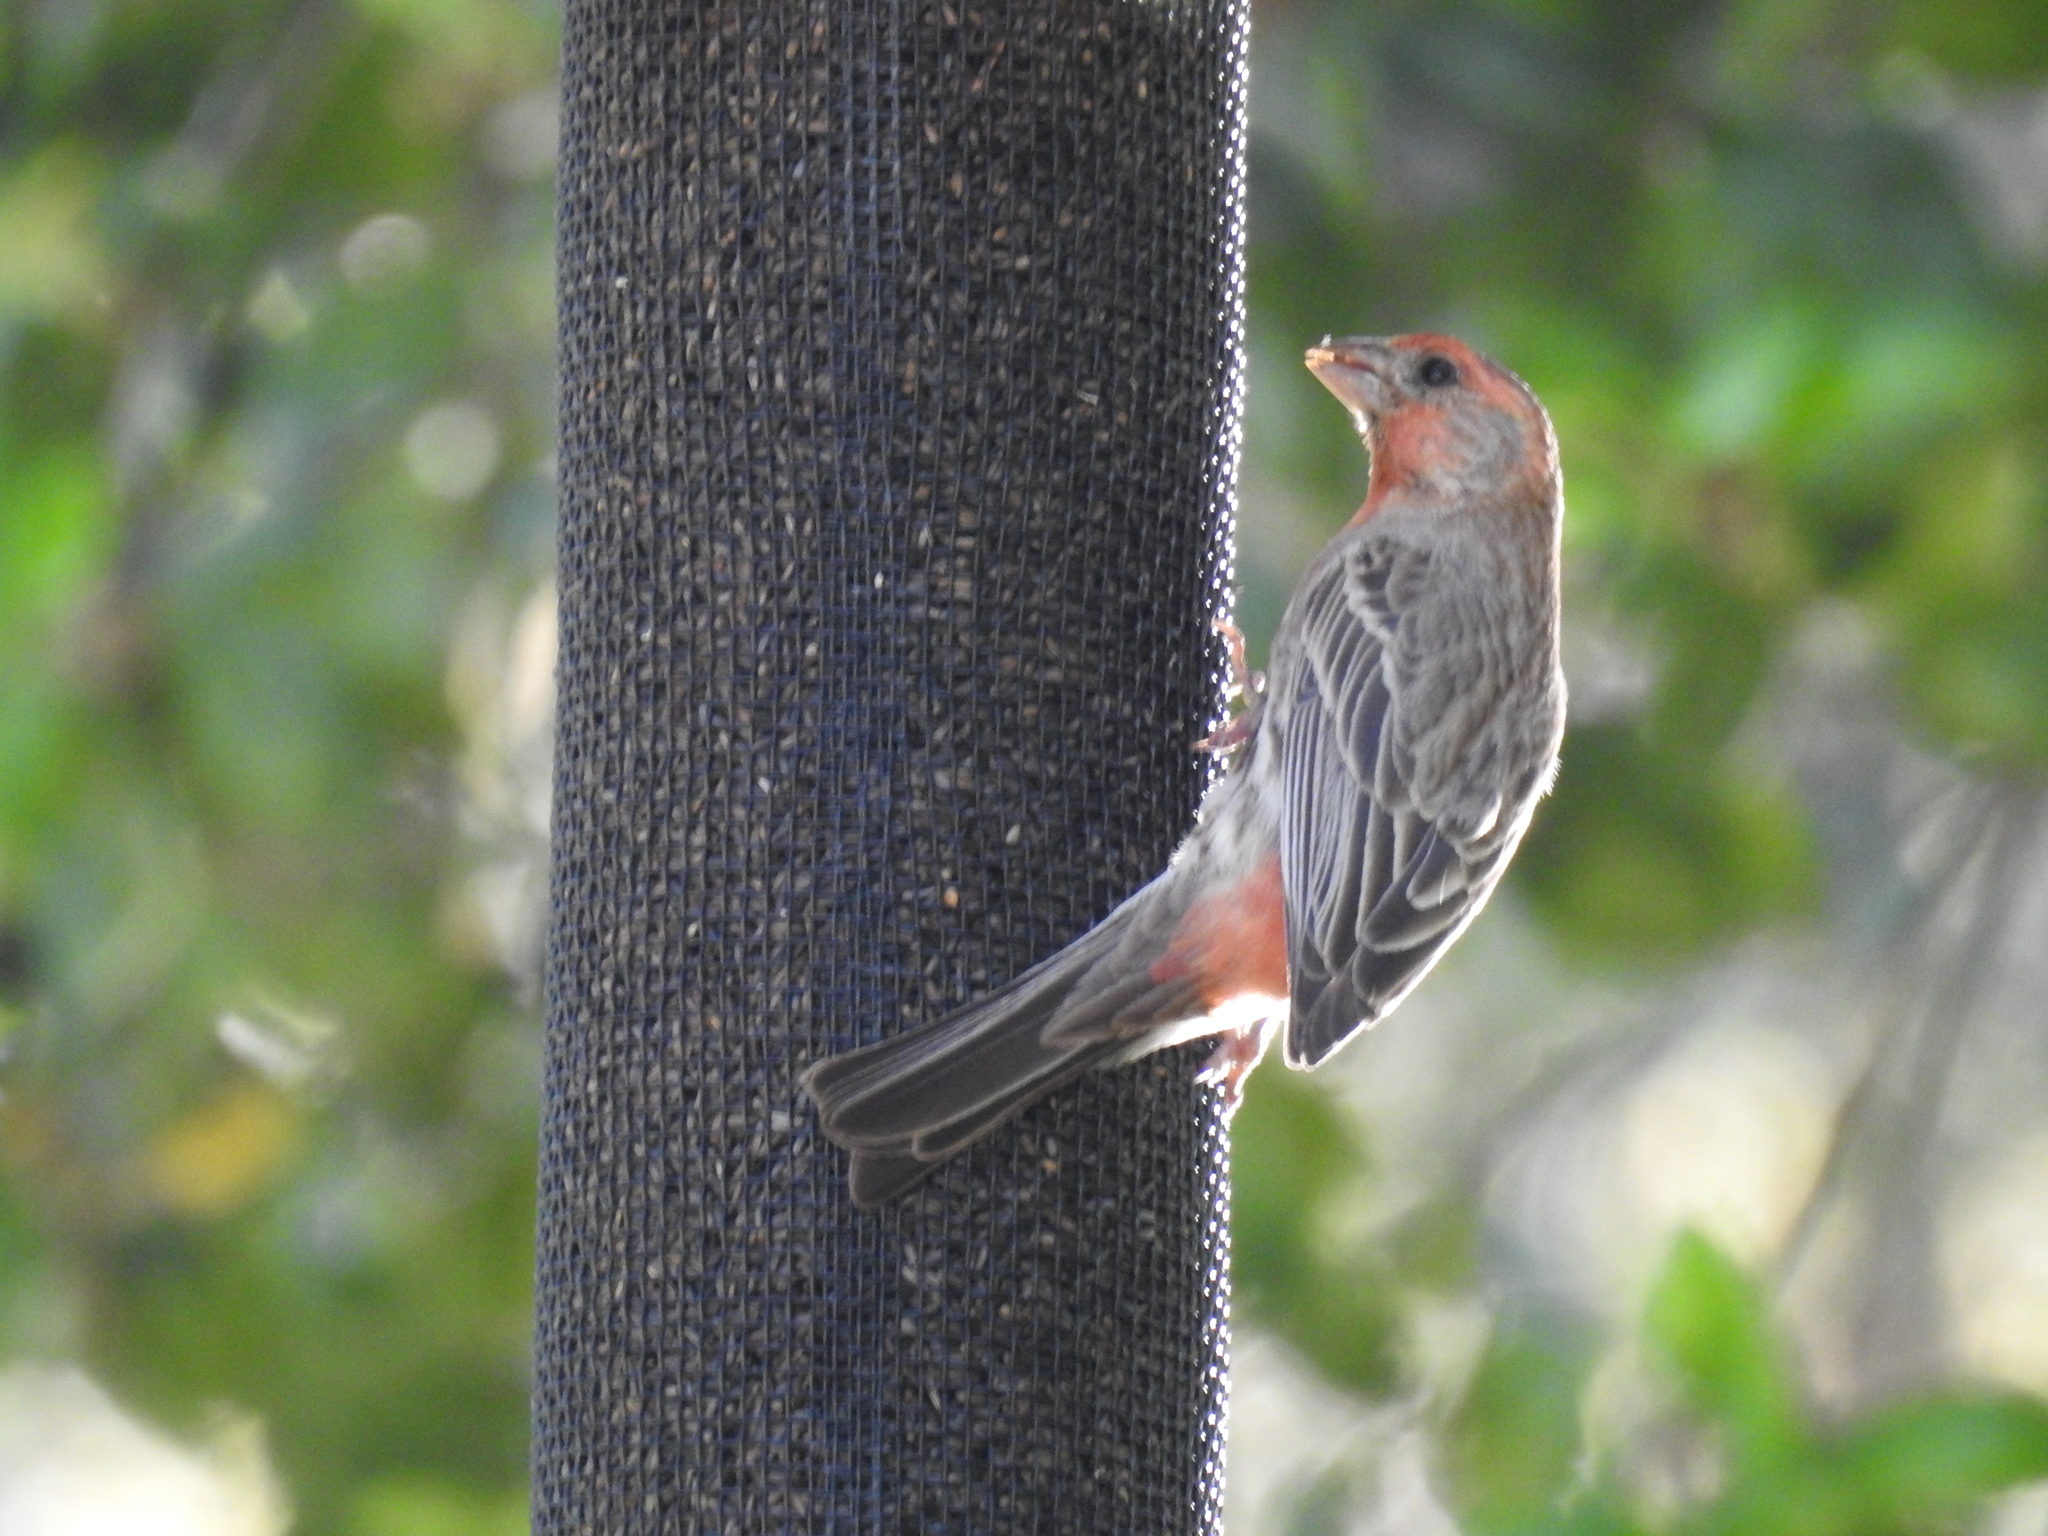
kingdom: Animalia
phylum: Chordata
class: Aves
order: Passeriformes
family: Fringillidae
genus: Haemorhous
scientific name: Haemorhous mexicanus
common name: House finch
